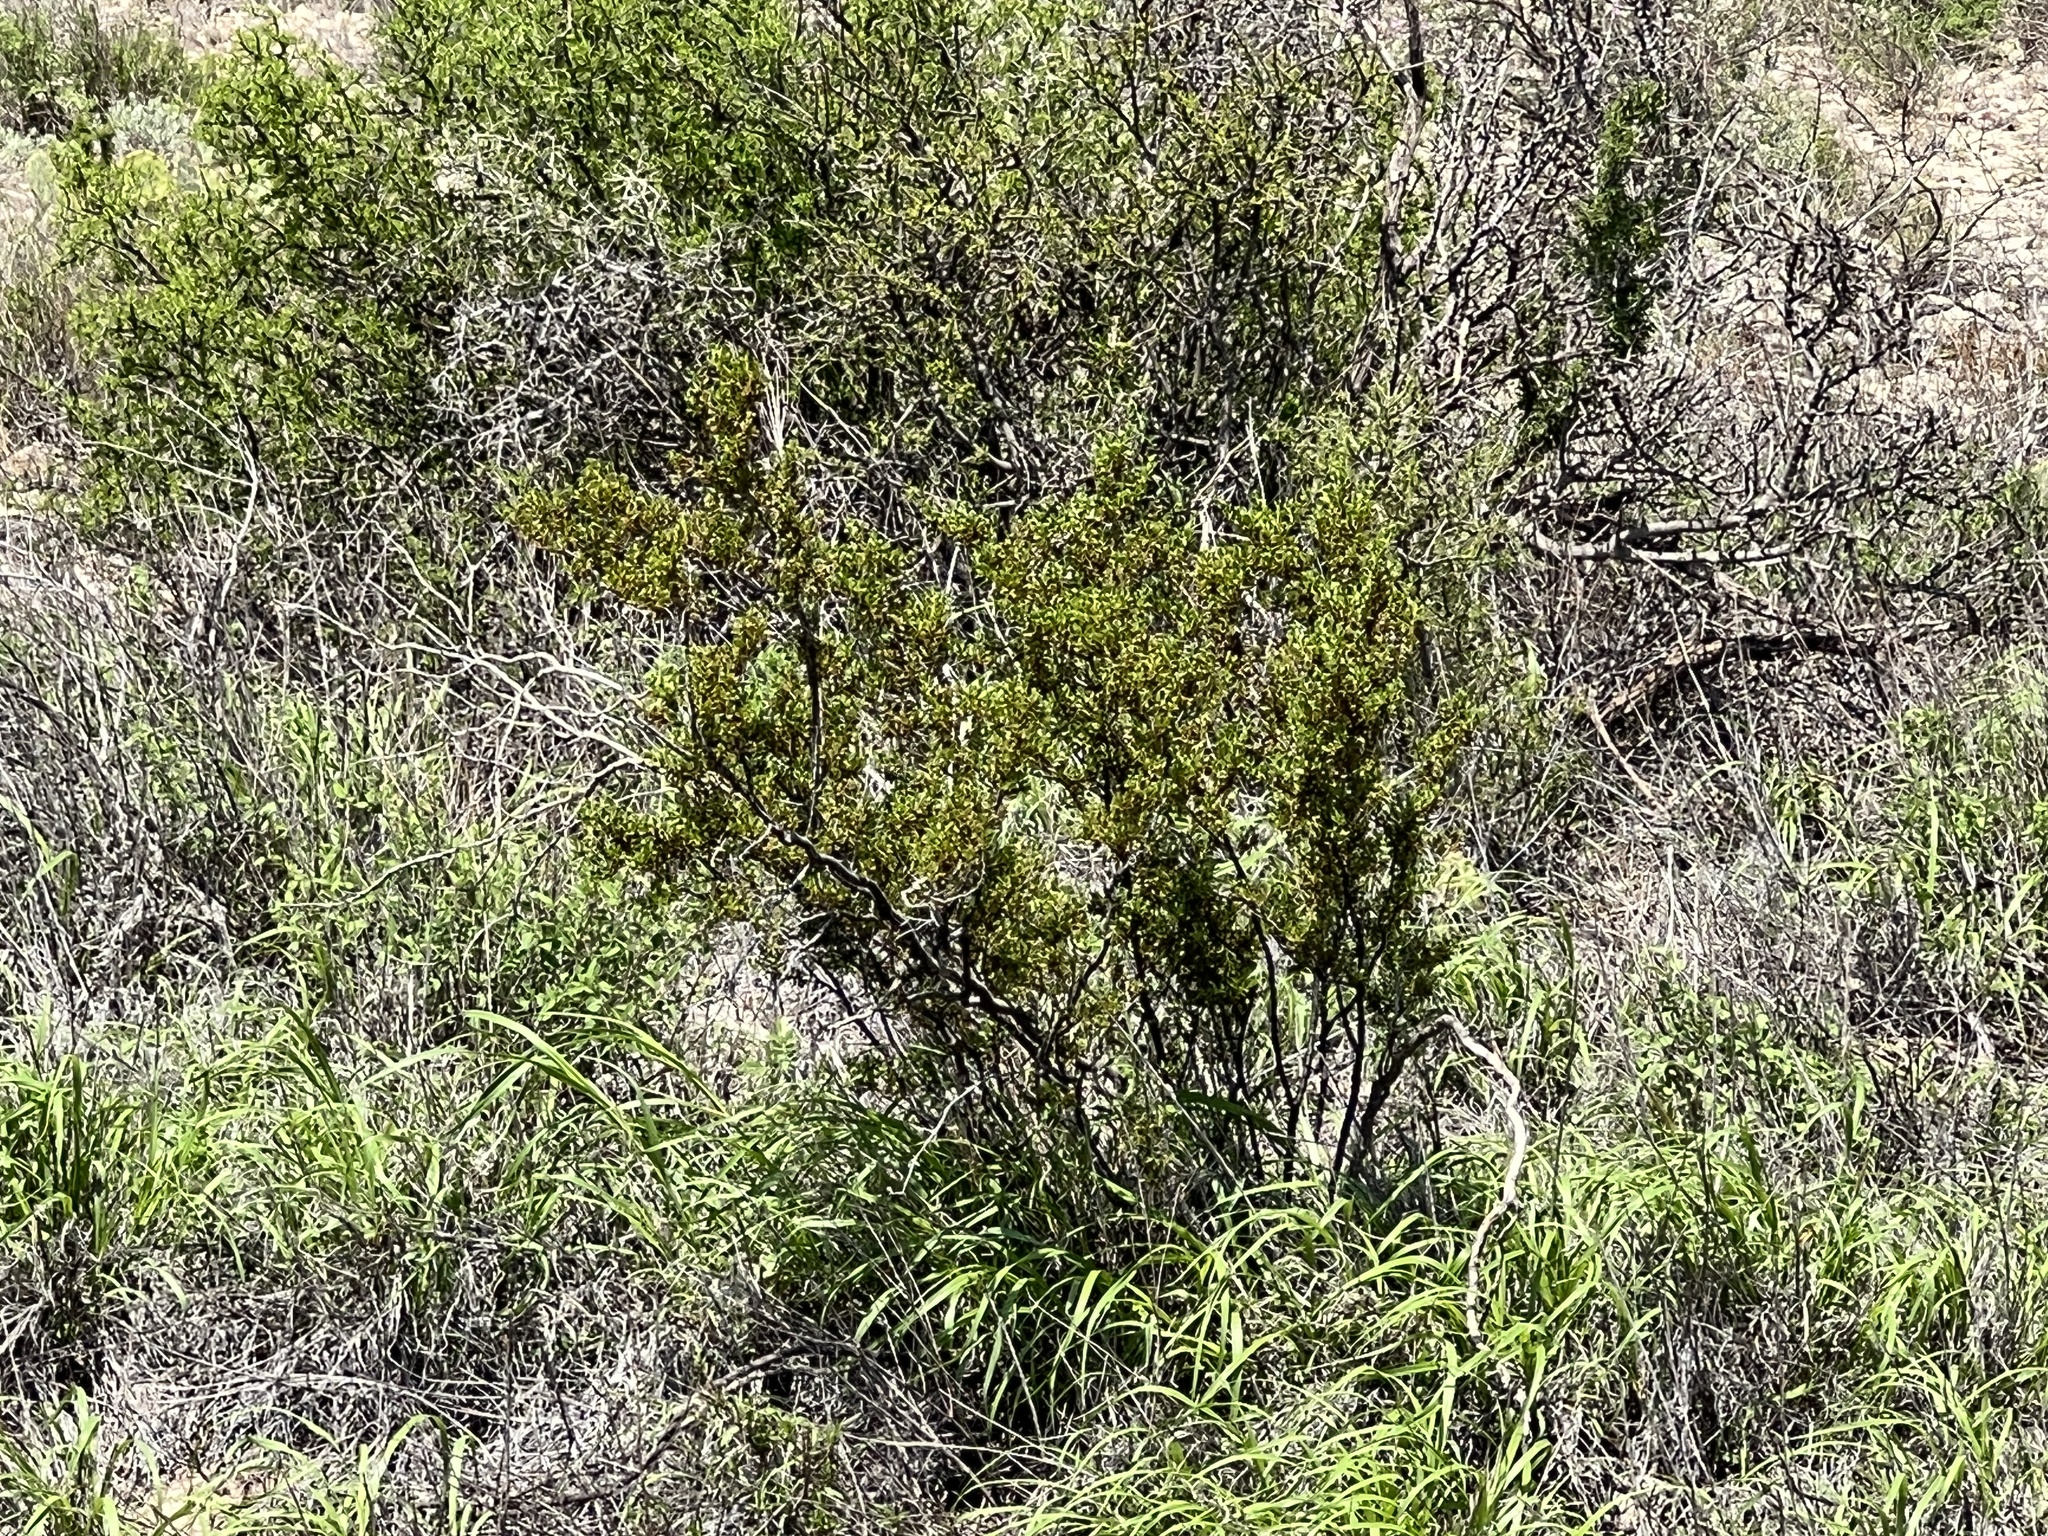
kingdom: Plantae
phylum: Tracheophyta
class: Magnoliopsida
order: Zygophyllales
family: Zygophyllaceae
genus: Larrea
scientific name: Larrea tridentata
